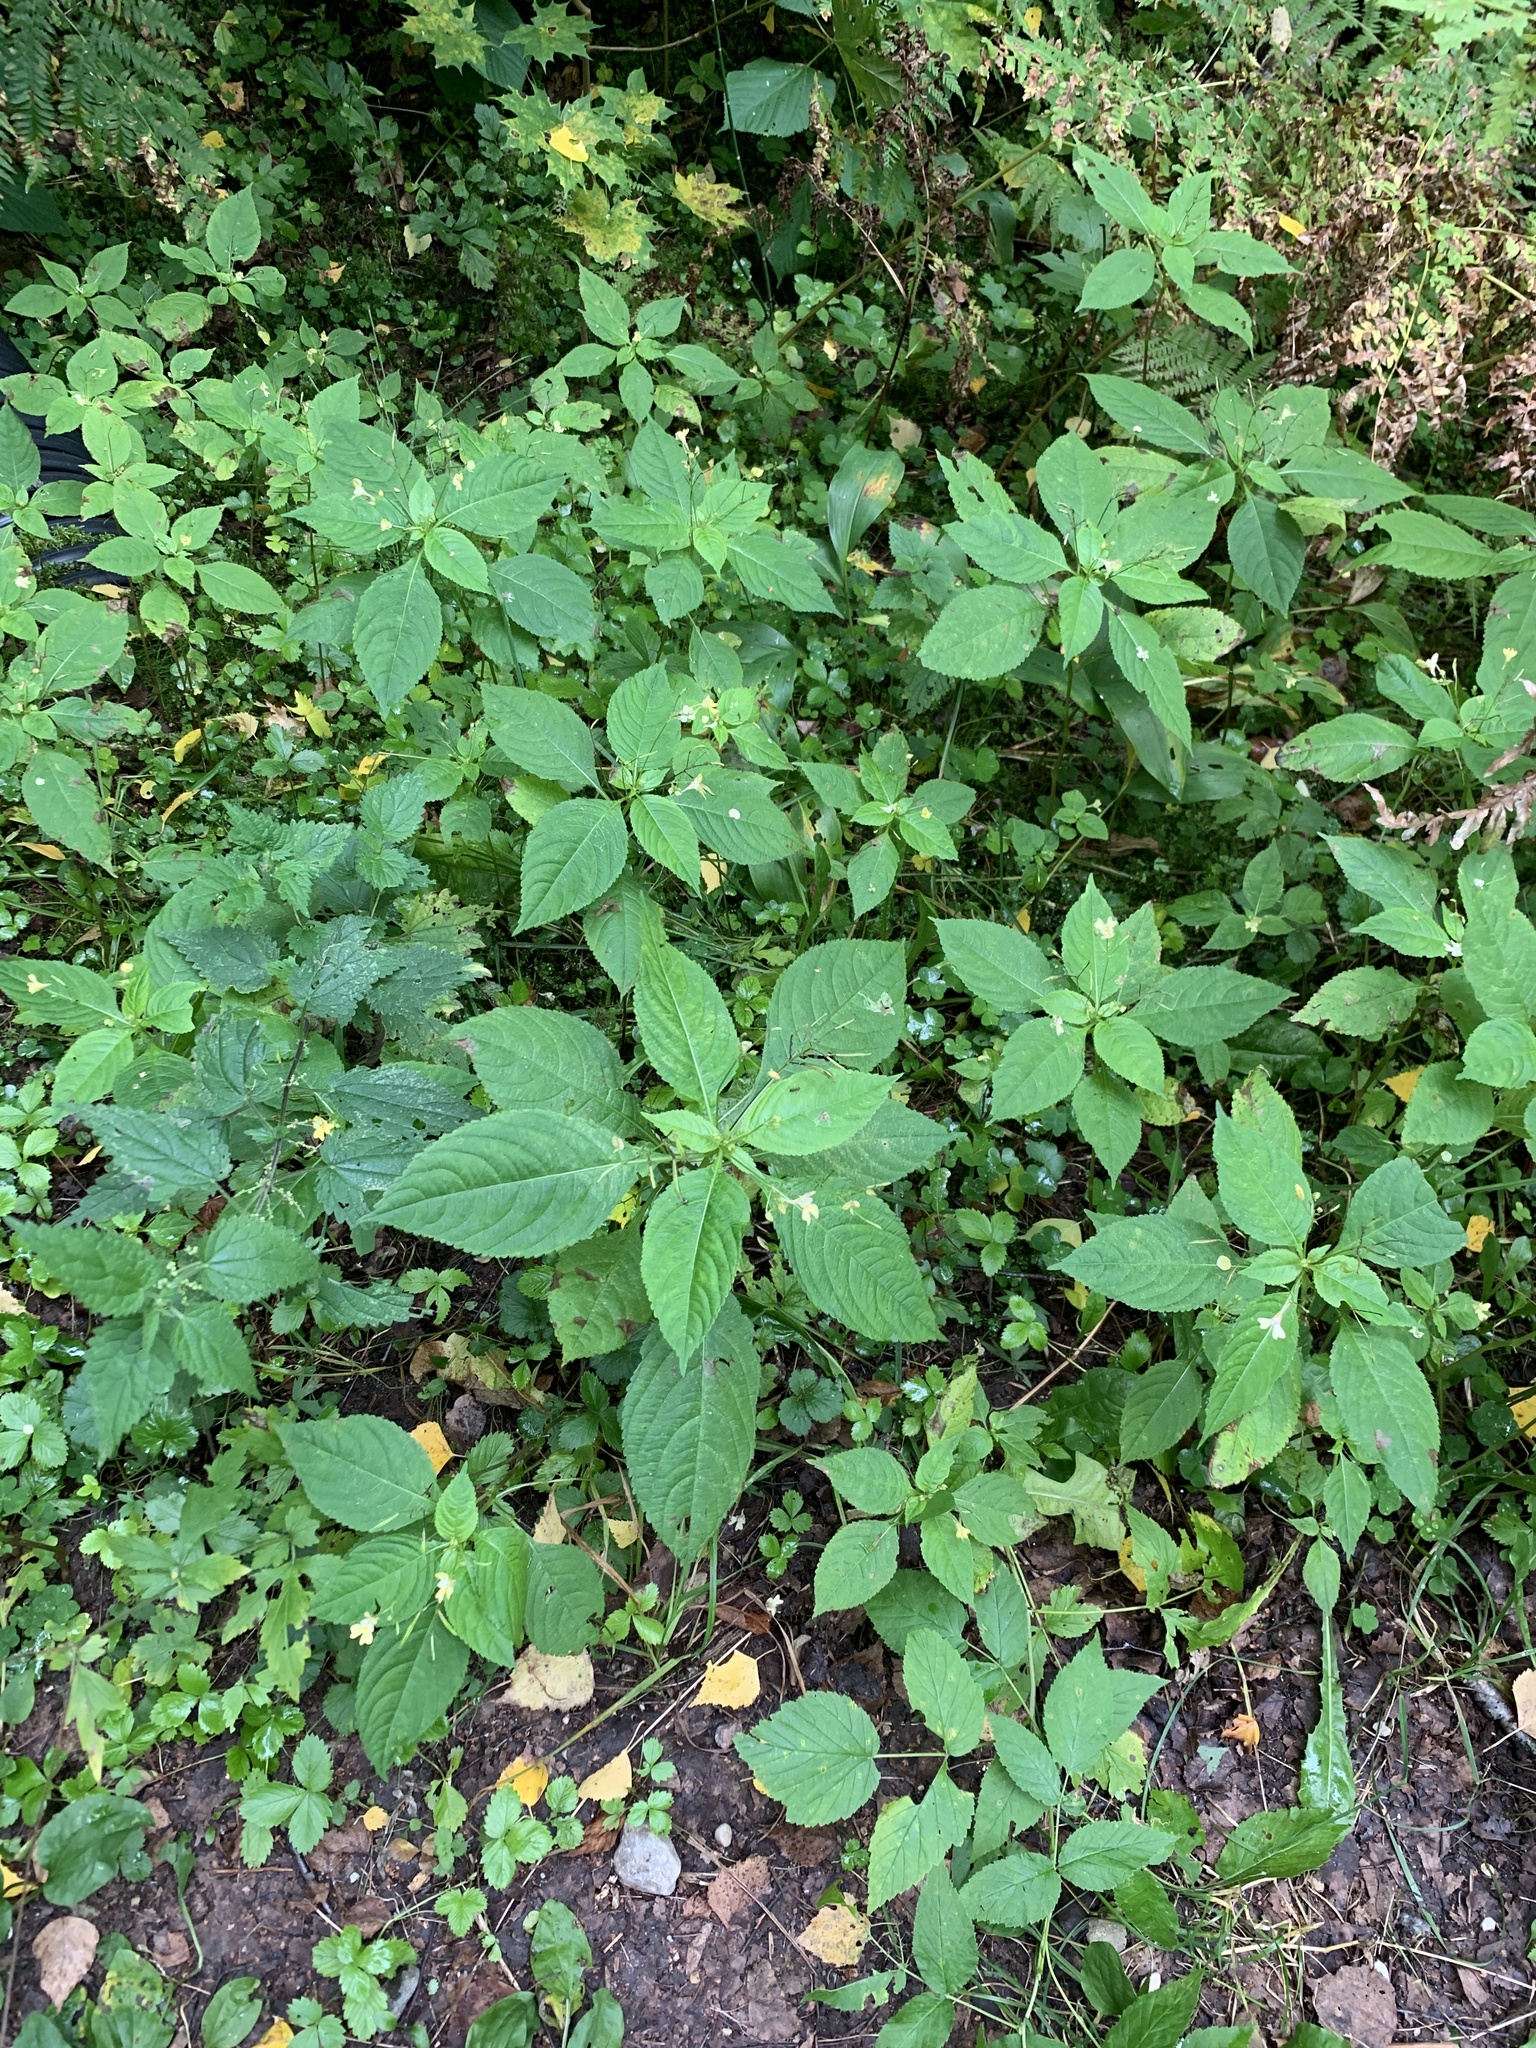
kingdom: Plantae
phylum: Tracheophyta
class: Magnoliopsida
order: Ericales
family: Balsaminaceae
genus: Impatiens
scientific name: Impatiens parviflora
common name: Small balsam
